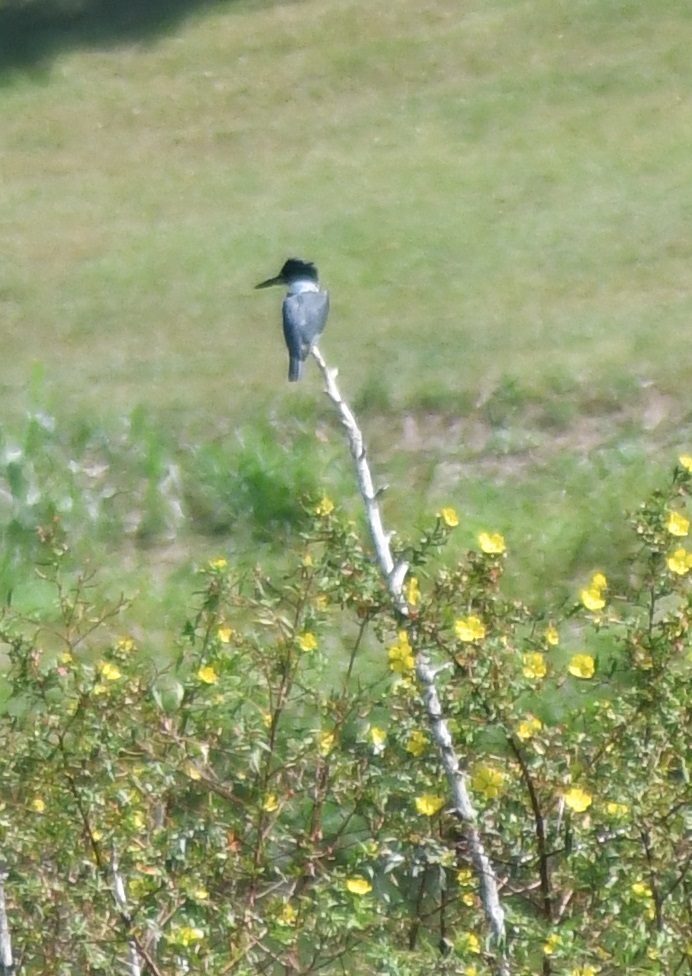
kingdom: Animalia
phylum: Chordata
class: Aves
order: Coraciiformes
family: Alcedinidae
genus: Megaceryle
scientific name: Megaceryle alcyon
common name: Belted kingfisher
